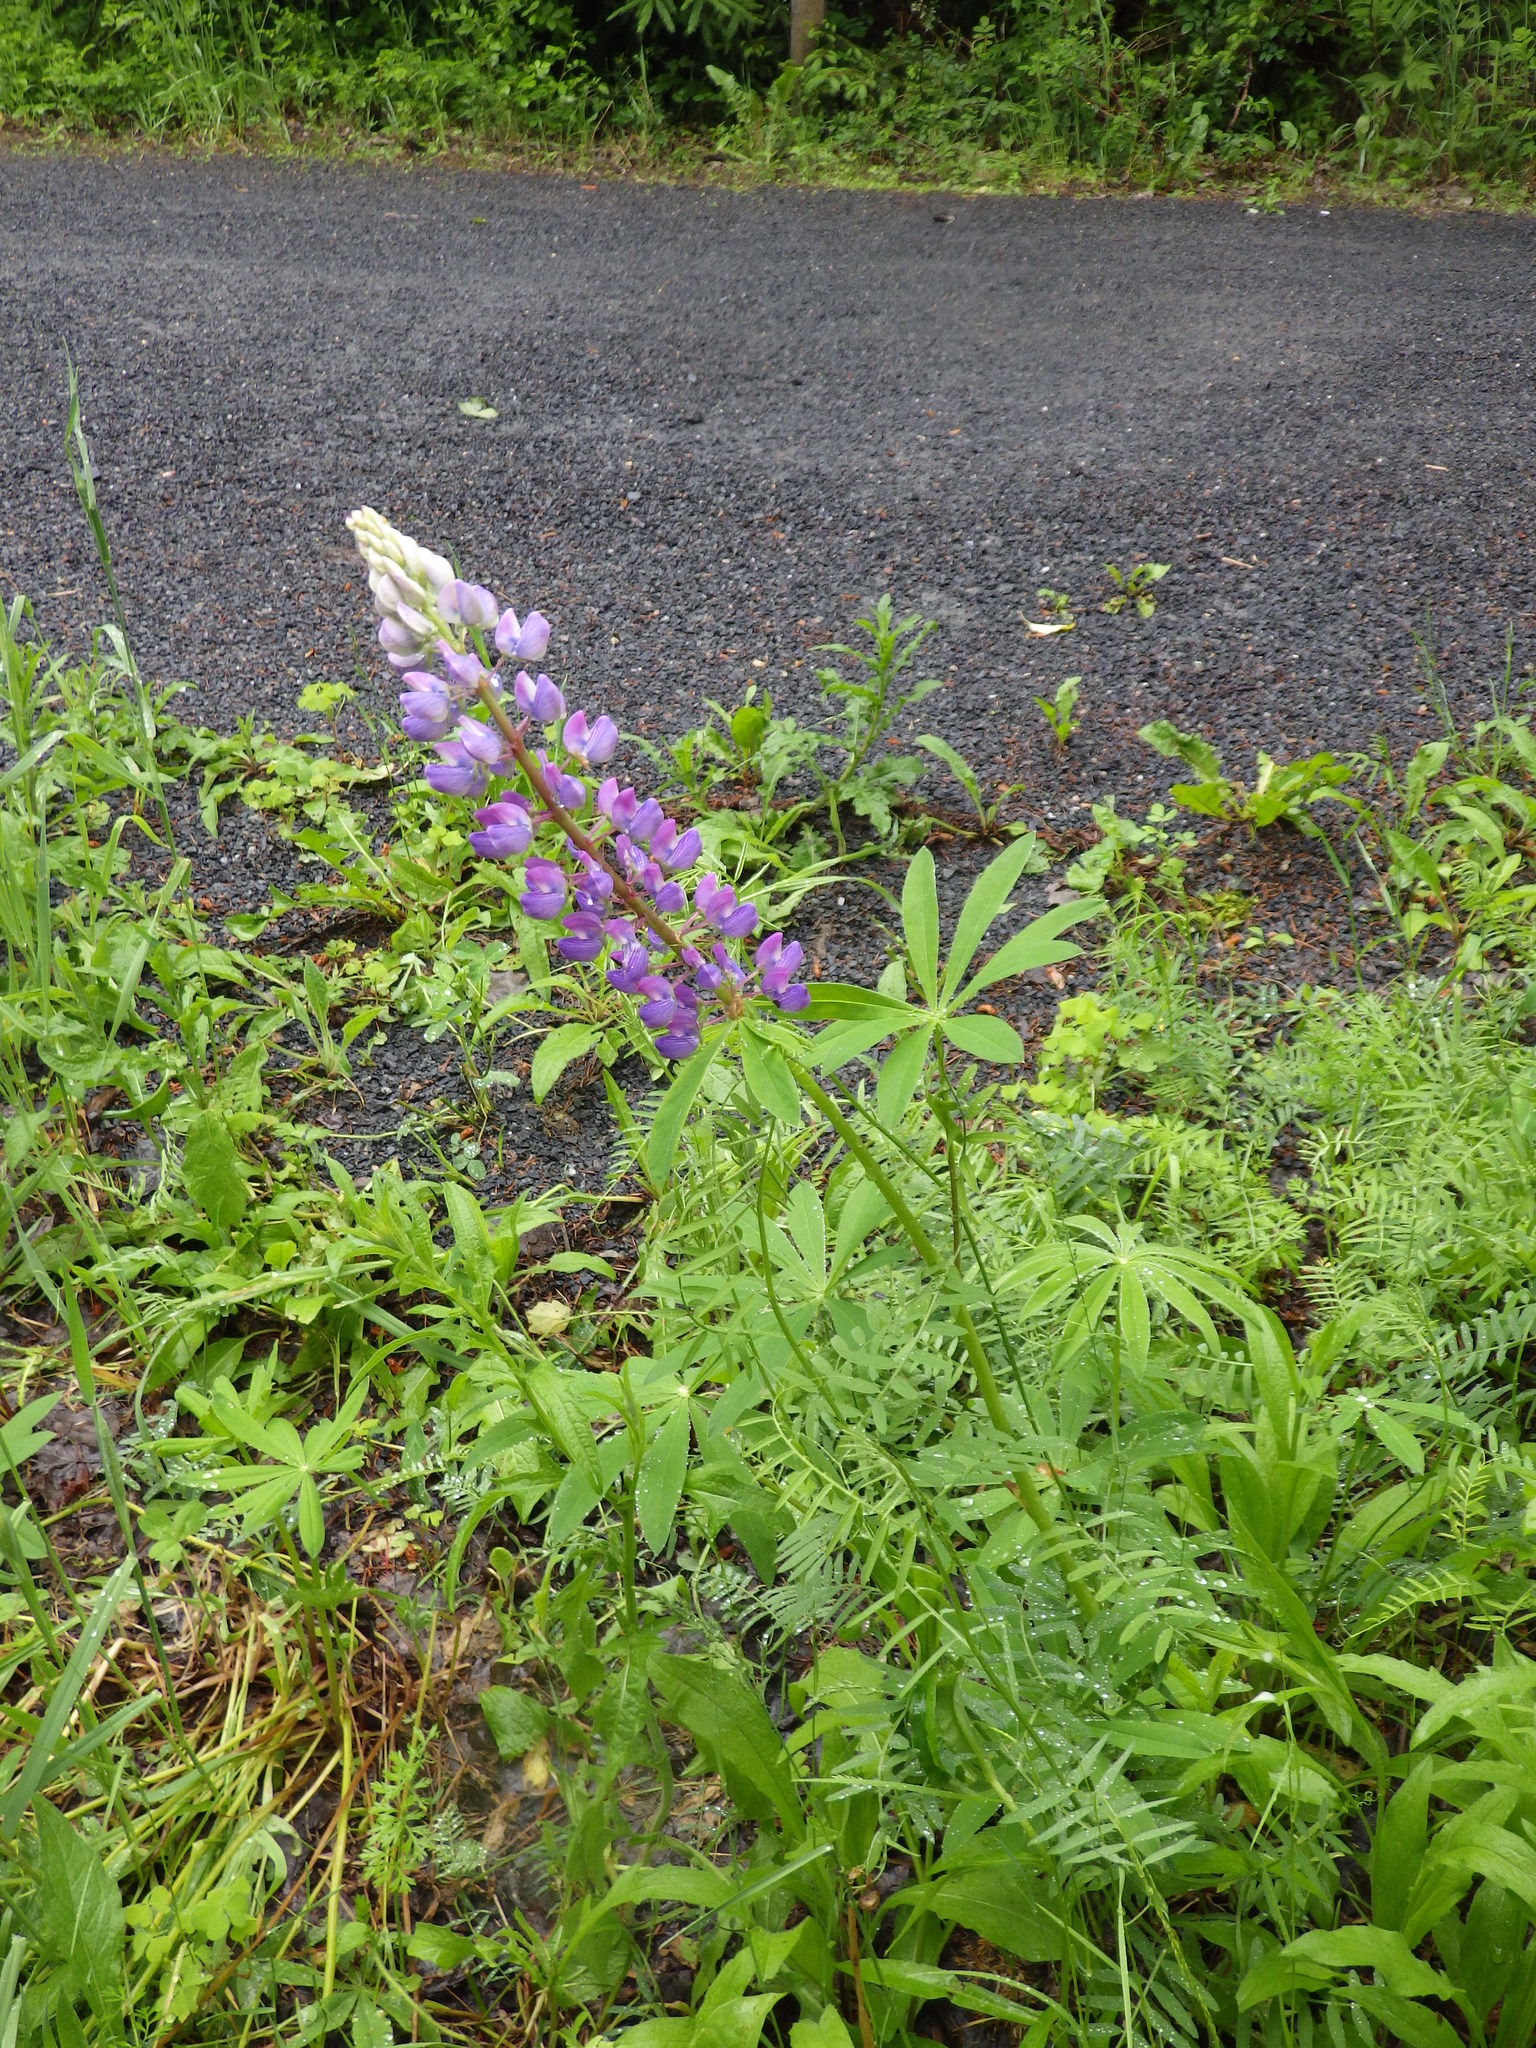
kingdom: Plantae
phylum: Tracheophyta
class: Magnoliopsida
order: Fabales
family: Fabaceae
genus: Lupinus
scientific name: Lupinus polyphyllus
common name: Garden lupin
